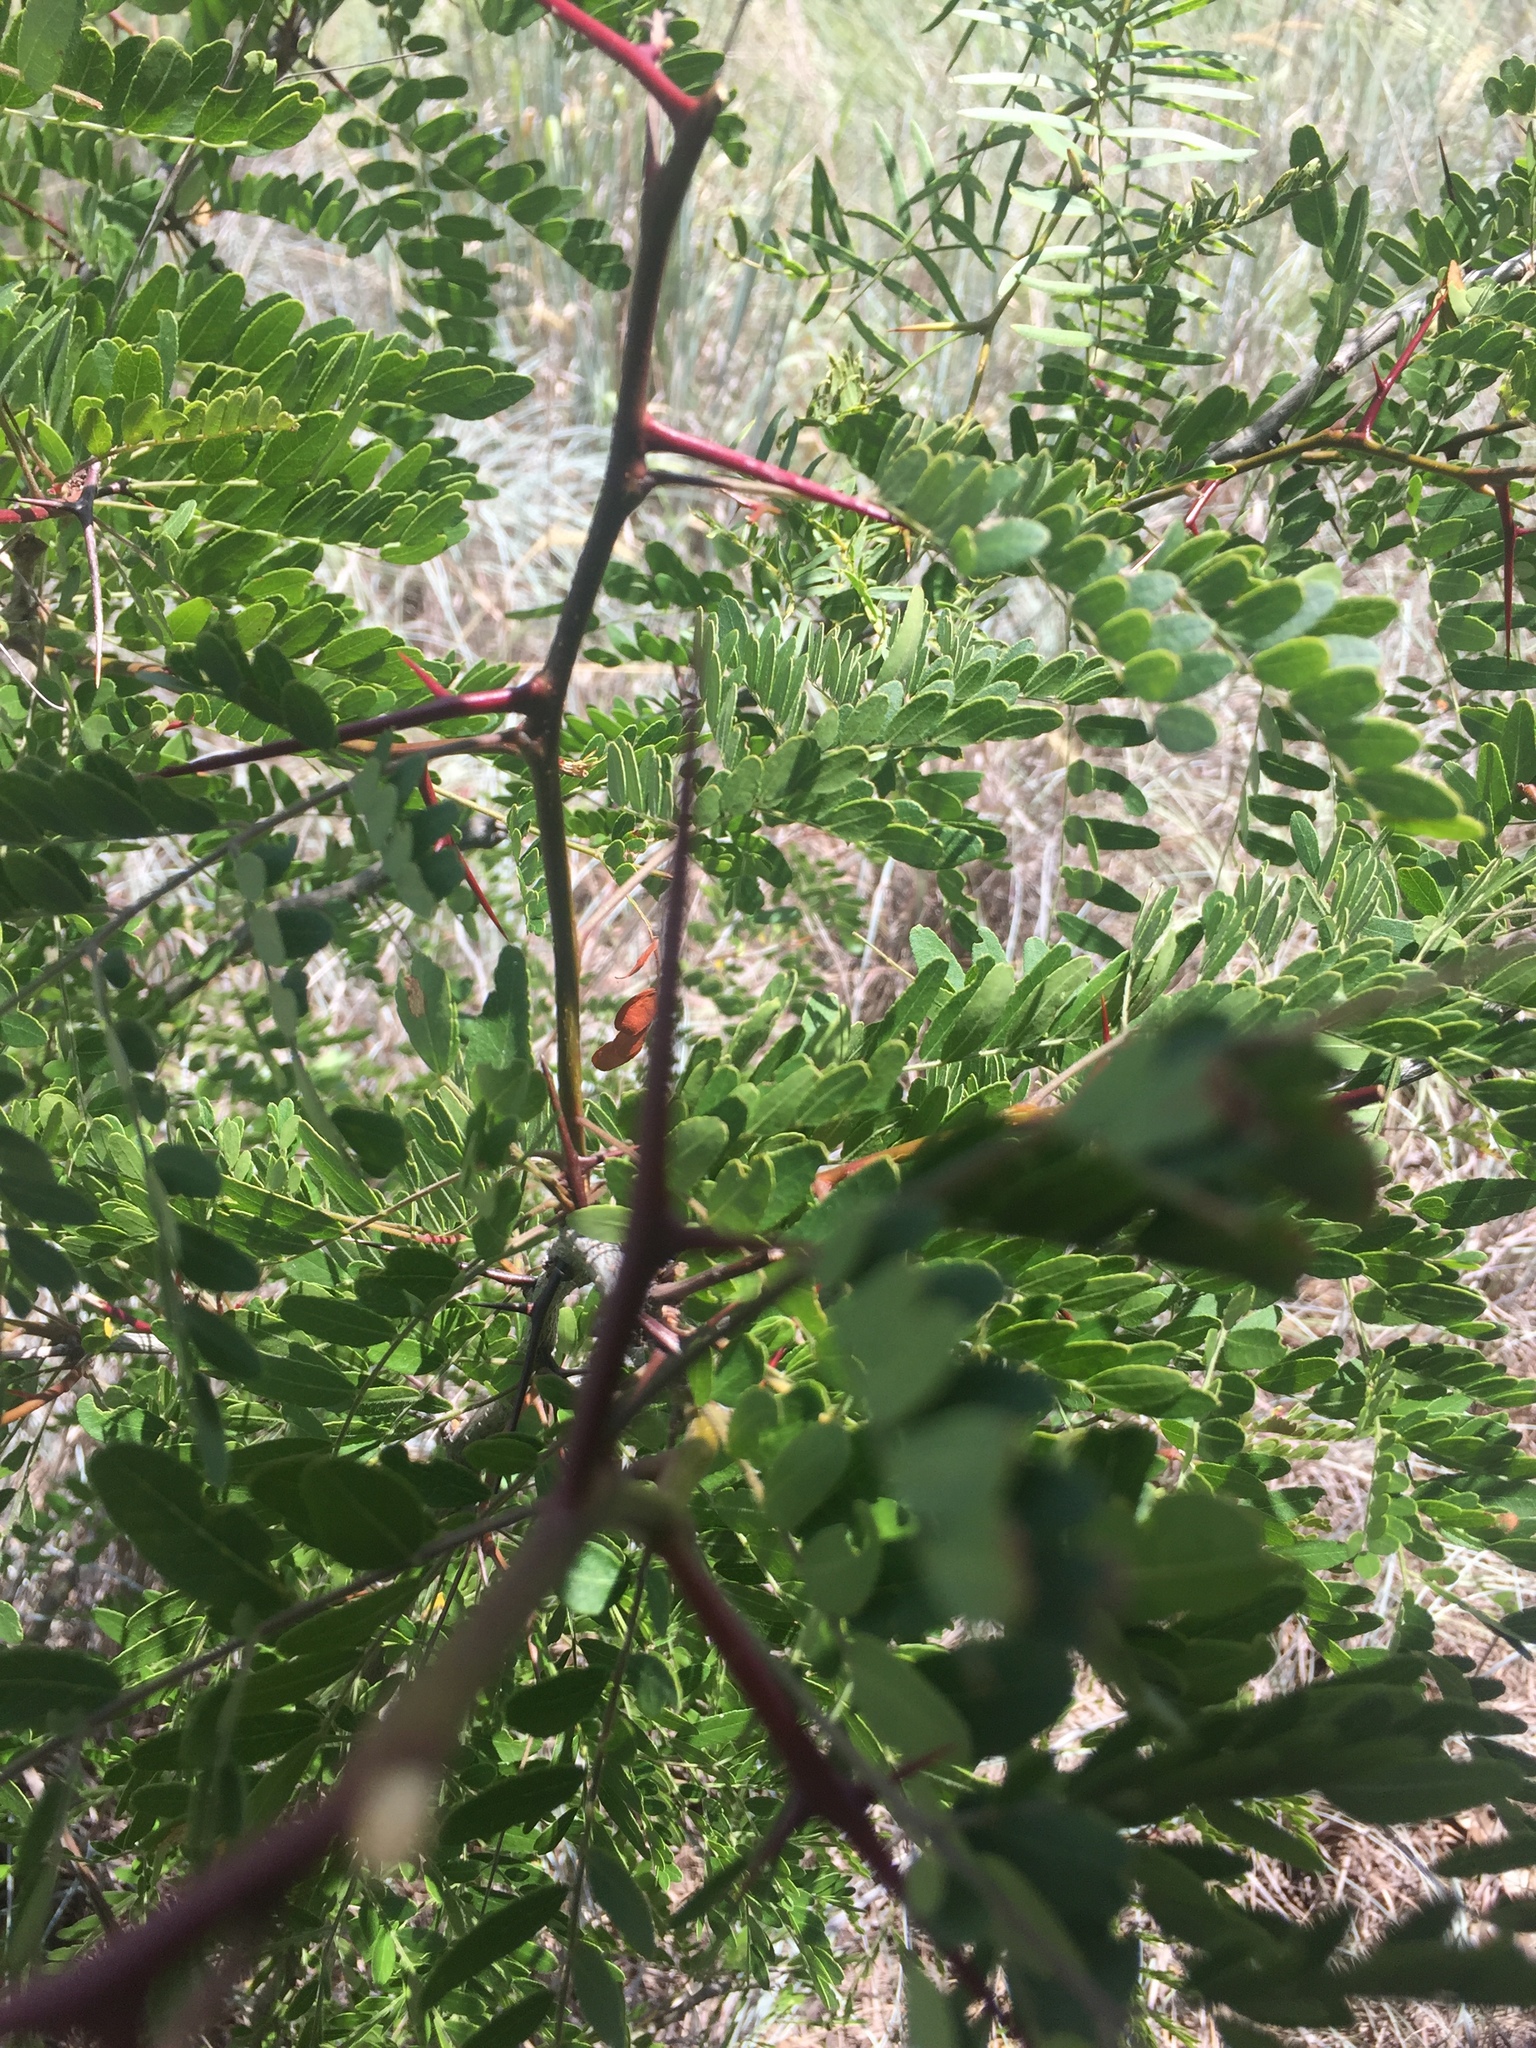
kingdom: Plantae
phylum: Tracheophyta
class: Magnoliopsida
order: Fabales
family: Fabaceae
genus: Gleditsia
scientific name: Gleditsia triacanthos
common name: Common honeylocust
